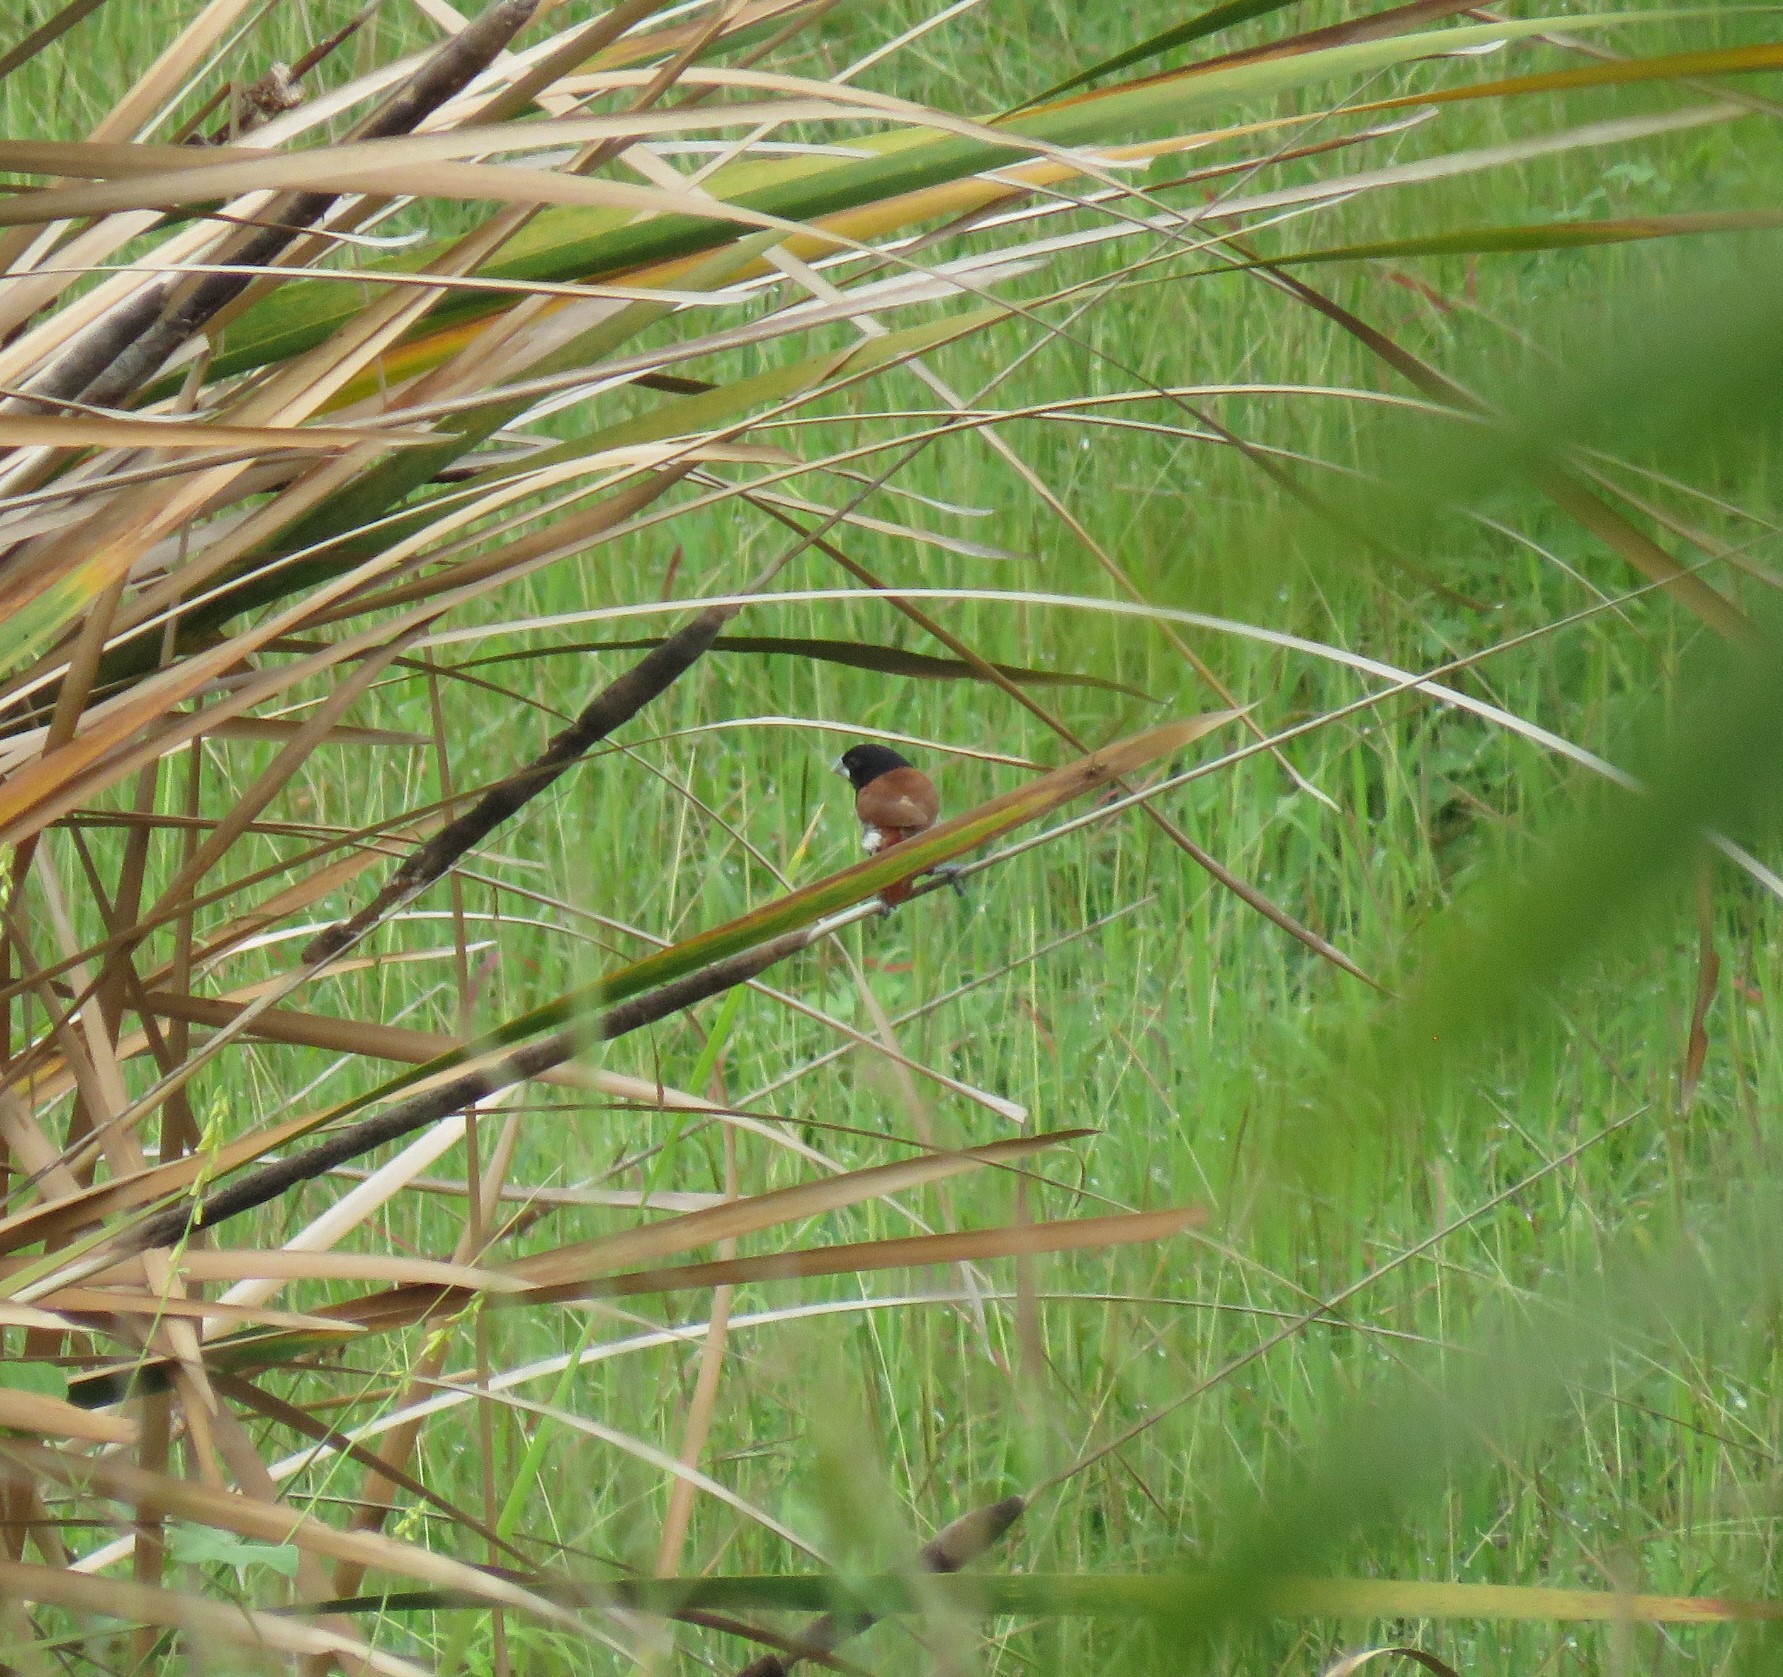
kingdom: Animalia
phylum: Chordata
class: Aves
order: Passeriformes
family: Estrildidae
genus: Lonchura
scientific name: Lonchura malacca
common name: Tricolored munia
